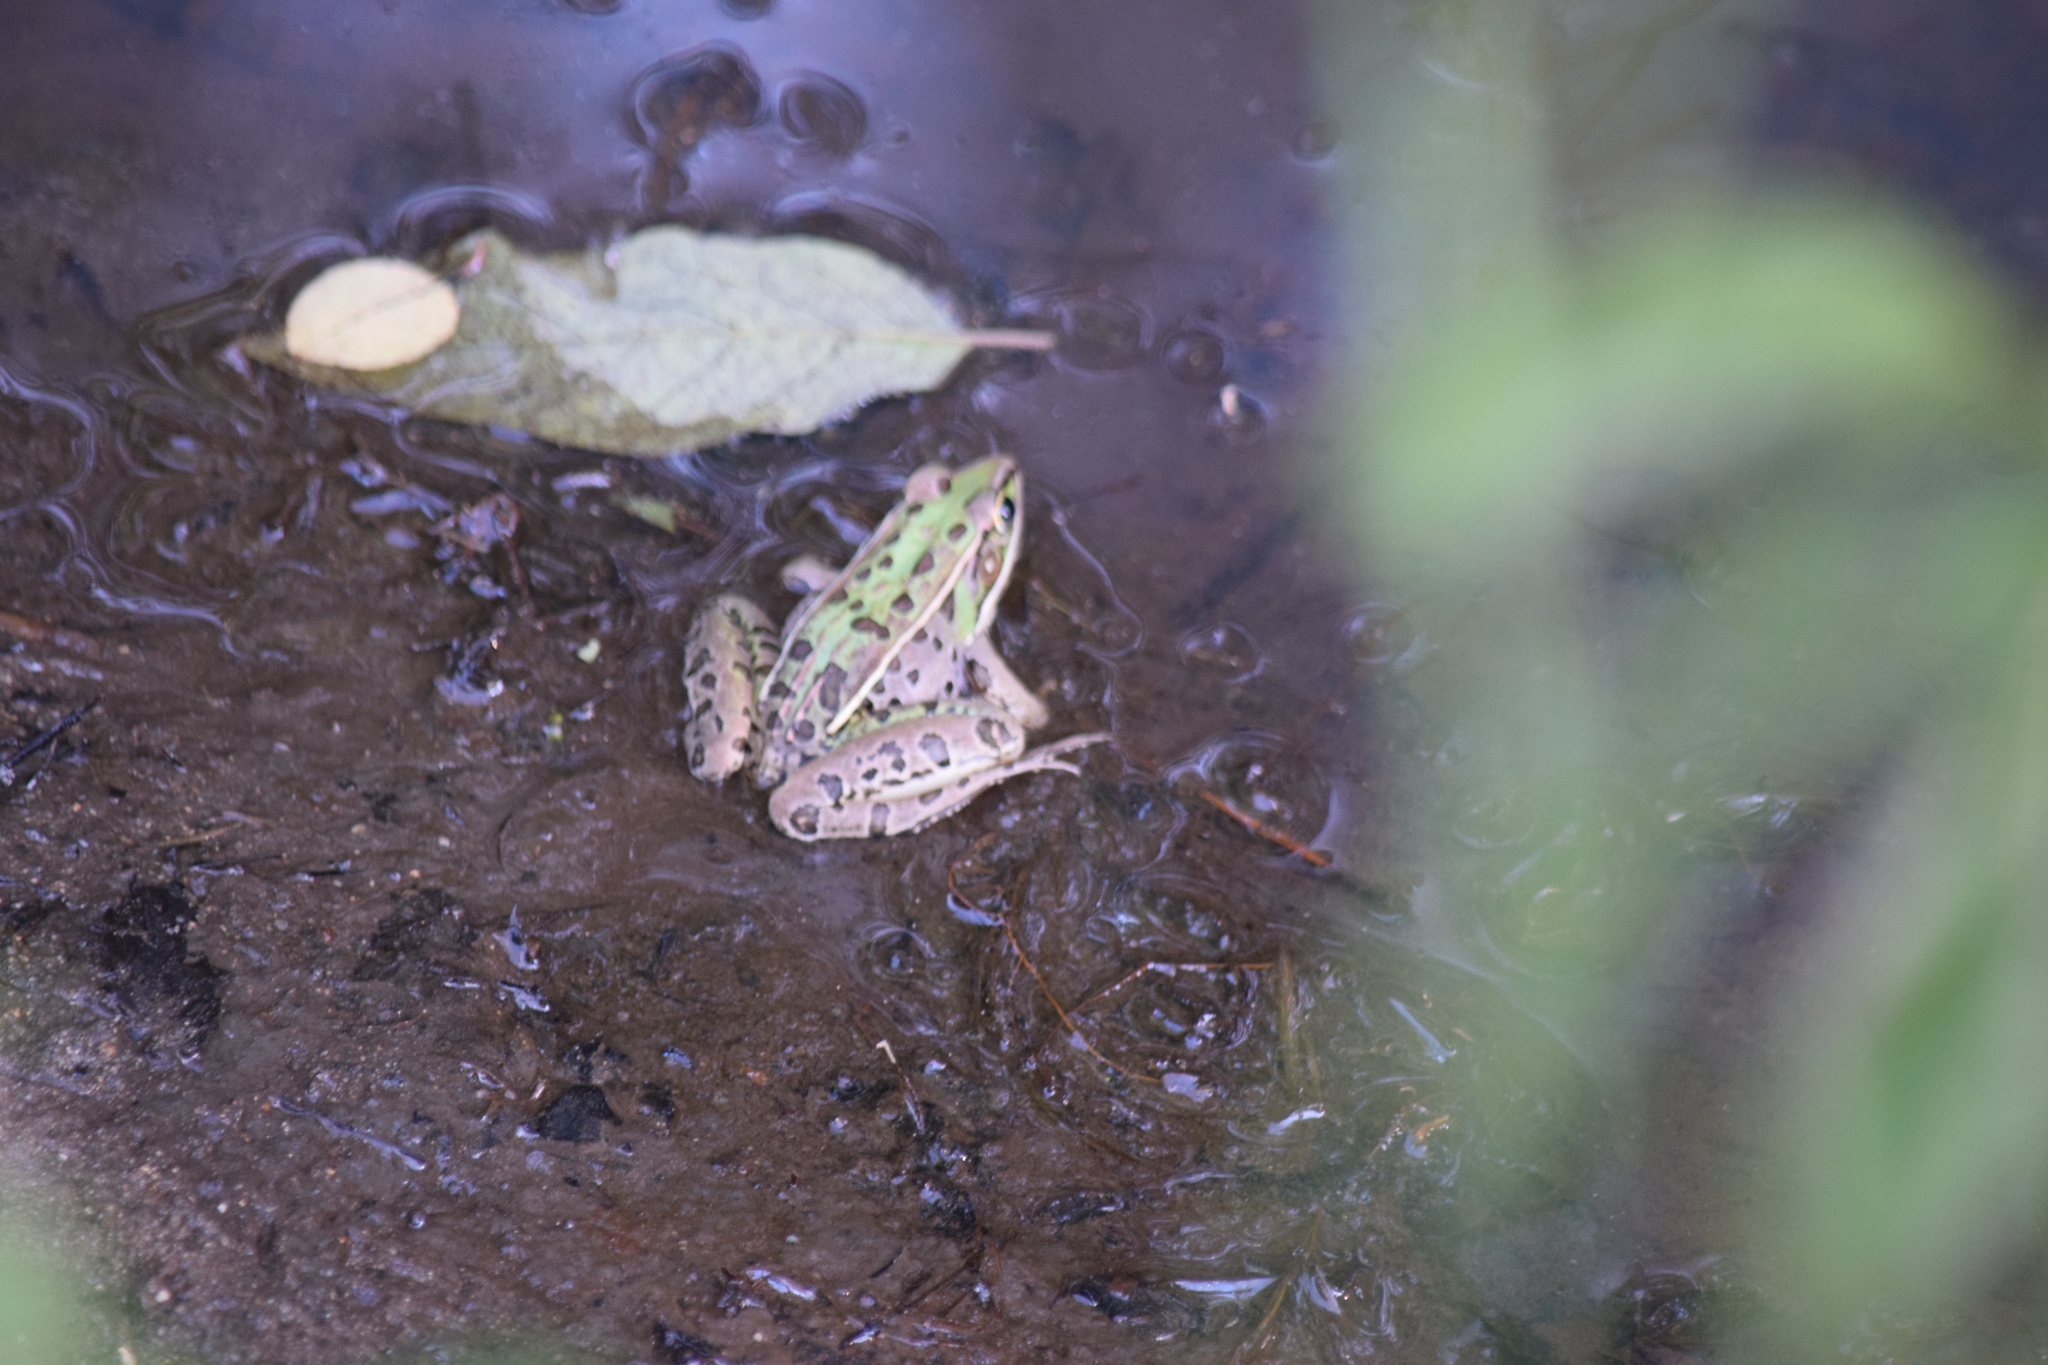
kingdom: Animalia
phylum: Chordata
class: Amphibia
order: Anura
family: Ranidae
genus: Lithobates
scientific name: Lithobates sphenocephalus
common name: Southern leopard frog
